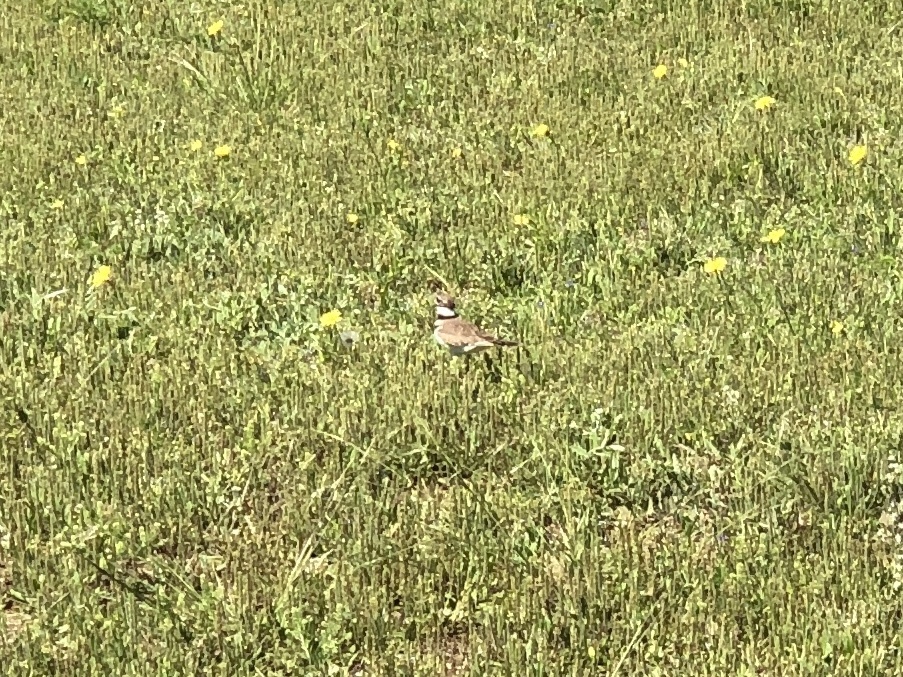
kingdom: Animalia
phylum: Chordata
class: Aves
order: Charadriiformes
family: Charadriidae
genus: Charadrius
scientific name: Charadrius vociferus
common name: Killdeer
